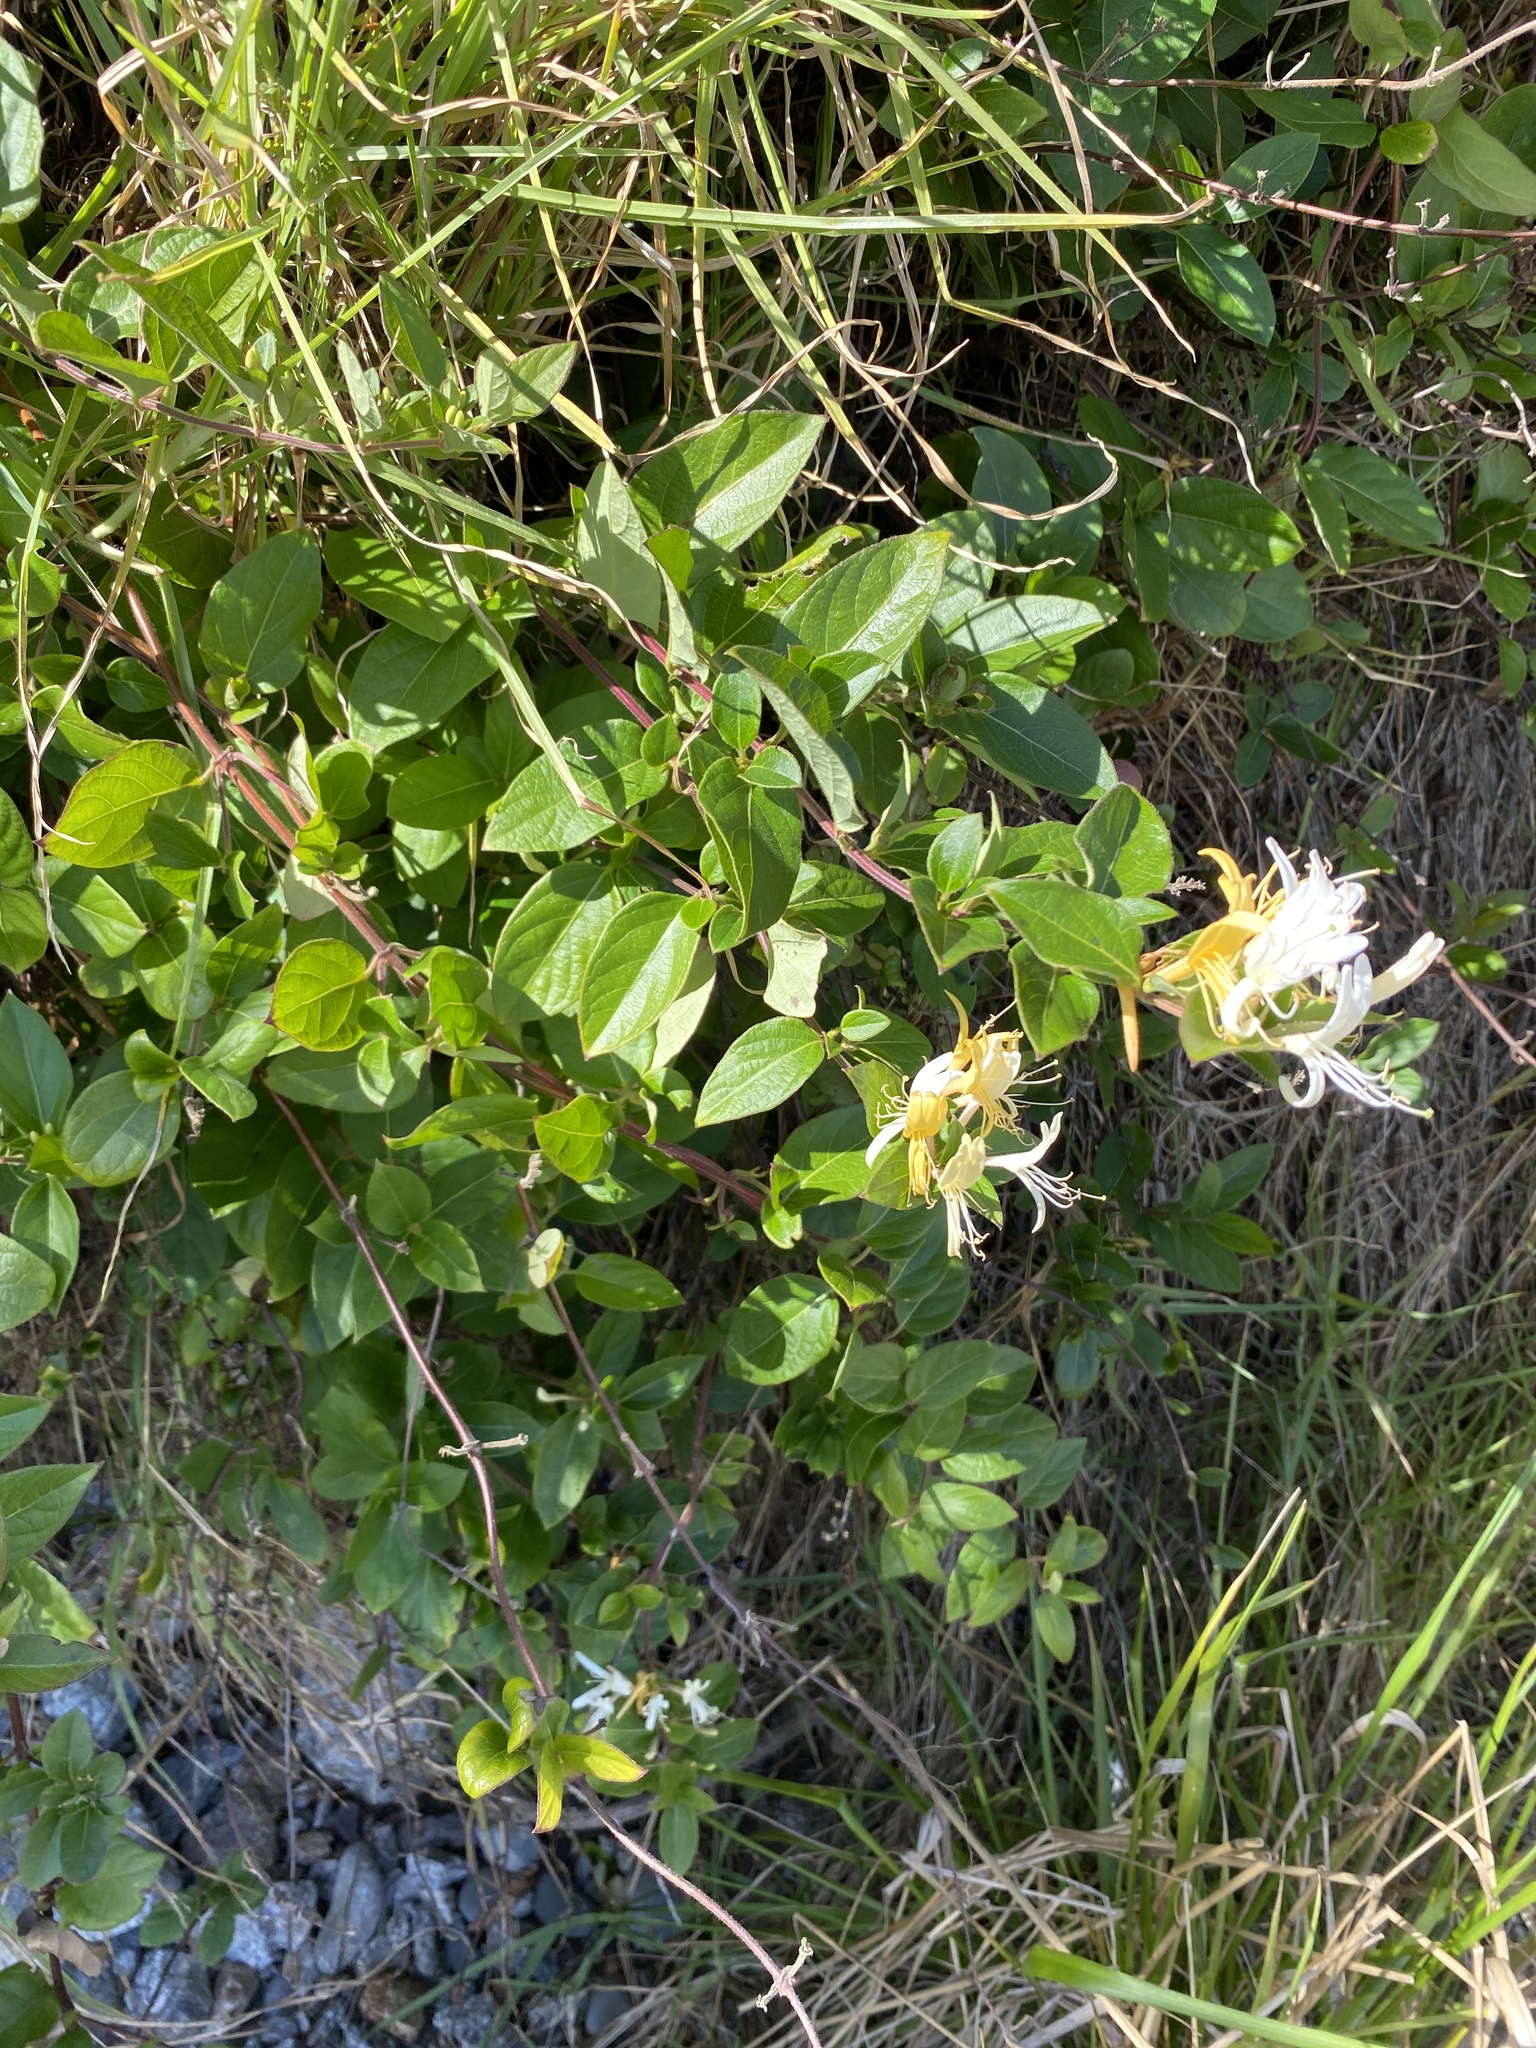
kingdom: Plantae
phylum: Tracheophyta
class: Magnoliopsida
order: Dipsacales
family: Caprifoliaceae
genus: Lonicera
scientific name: Lonicera japonica
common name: Japanese honeysuckle
